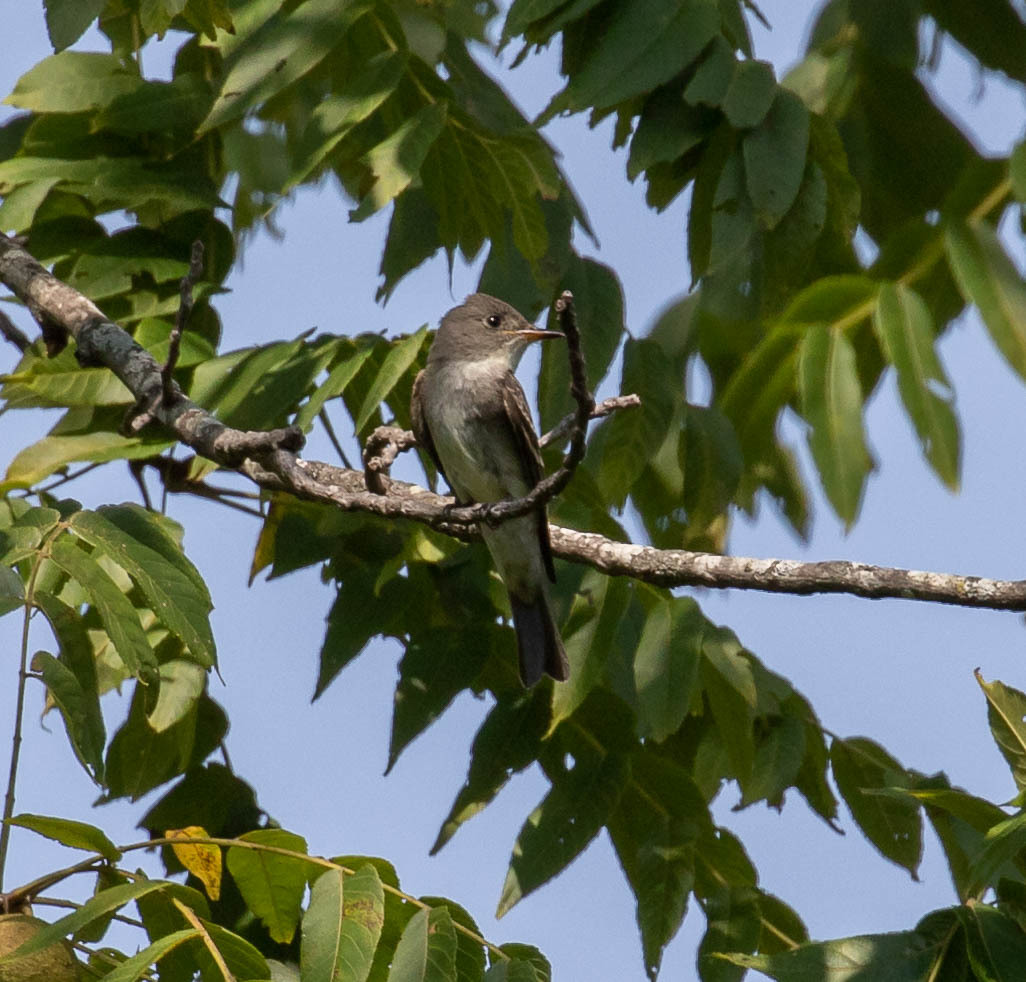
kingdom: Animalia
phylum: Chordata
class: Aves
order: Passeriformes
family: Tyrannidae
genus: Contopus
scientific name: Contopus virens
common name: Eastern wood-pewee
